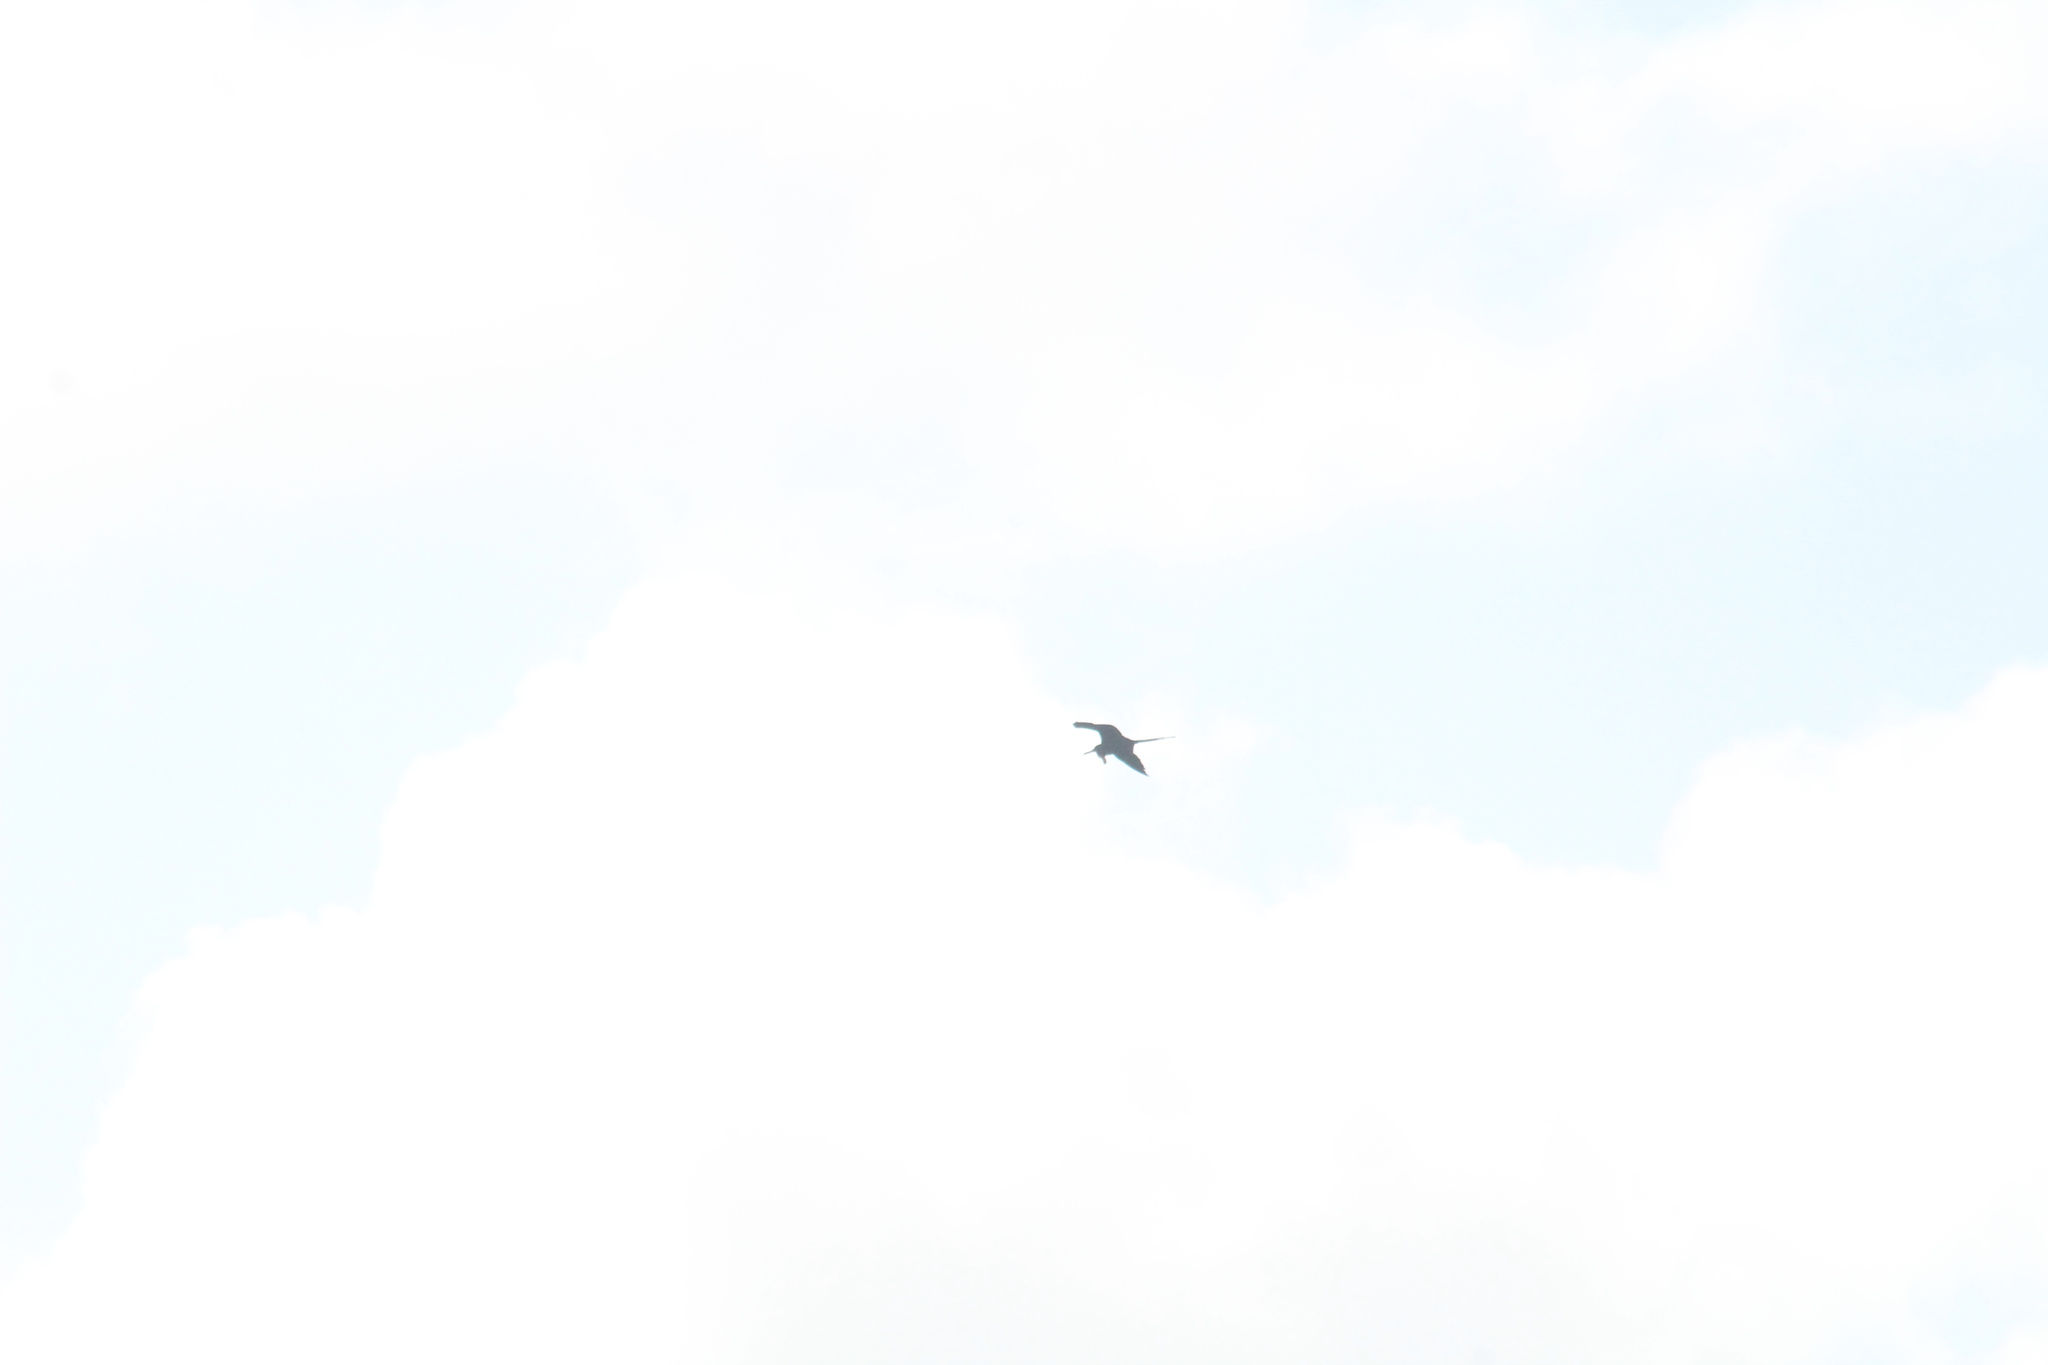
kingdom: Animalia
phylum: Chordata
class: Aves
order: Suliformes
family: Fregatidae
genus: Fregata
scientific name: Fregata magnificens
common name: Magnificent frigatebird
